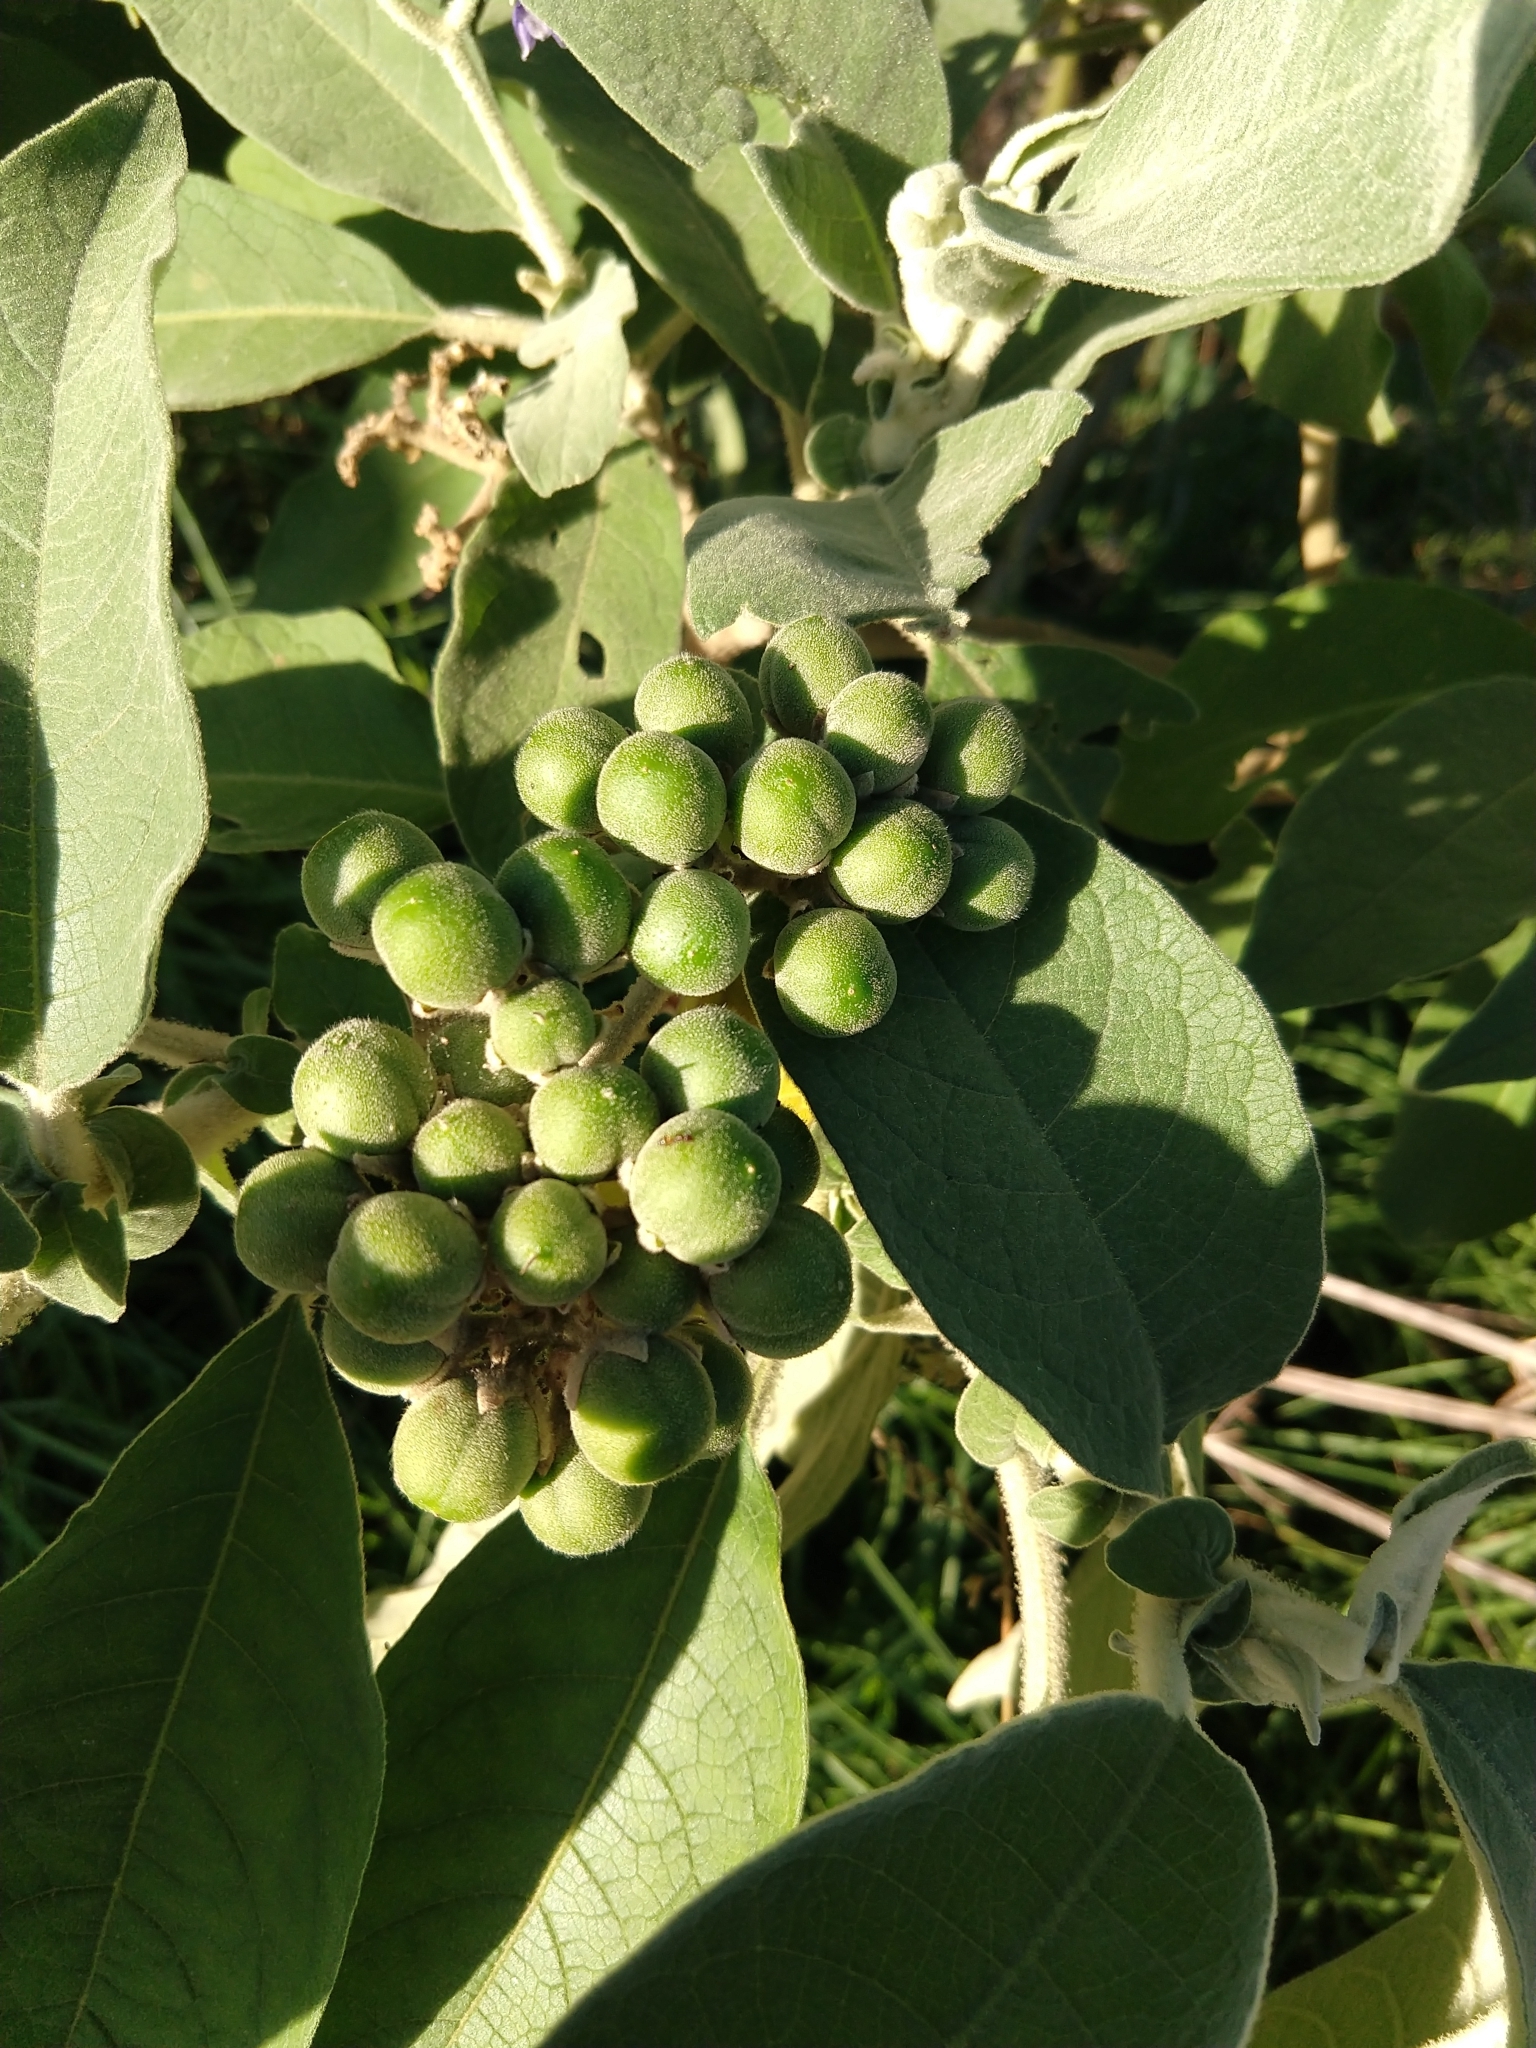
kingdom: Plantae
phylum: Tracheophyta
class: Magnoliopsida
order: Solanales
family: Solanaceae
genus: Solanum
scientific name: Solanum mauritianum
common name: Earleaf nightshade
